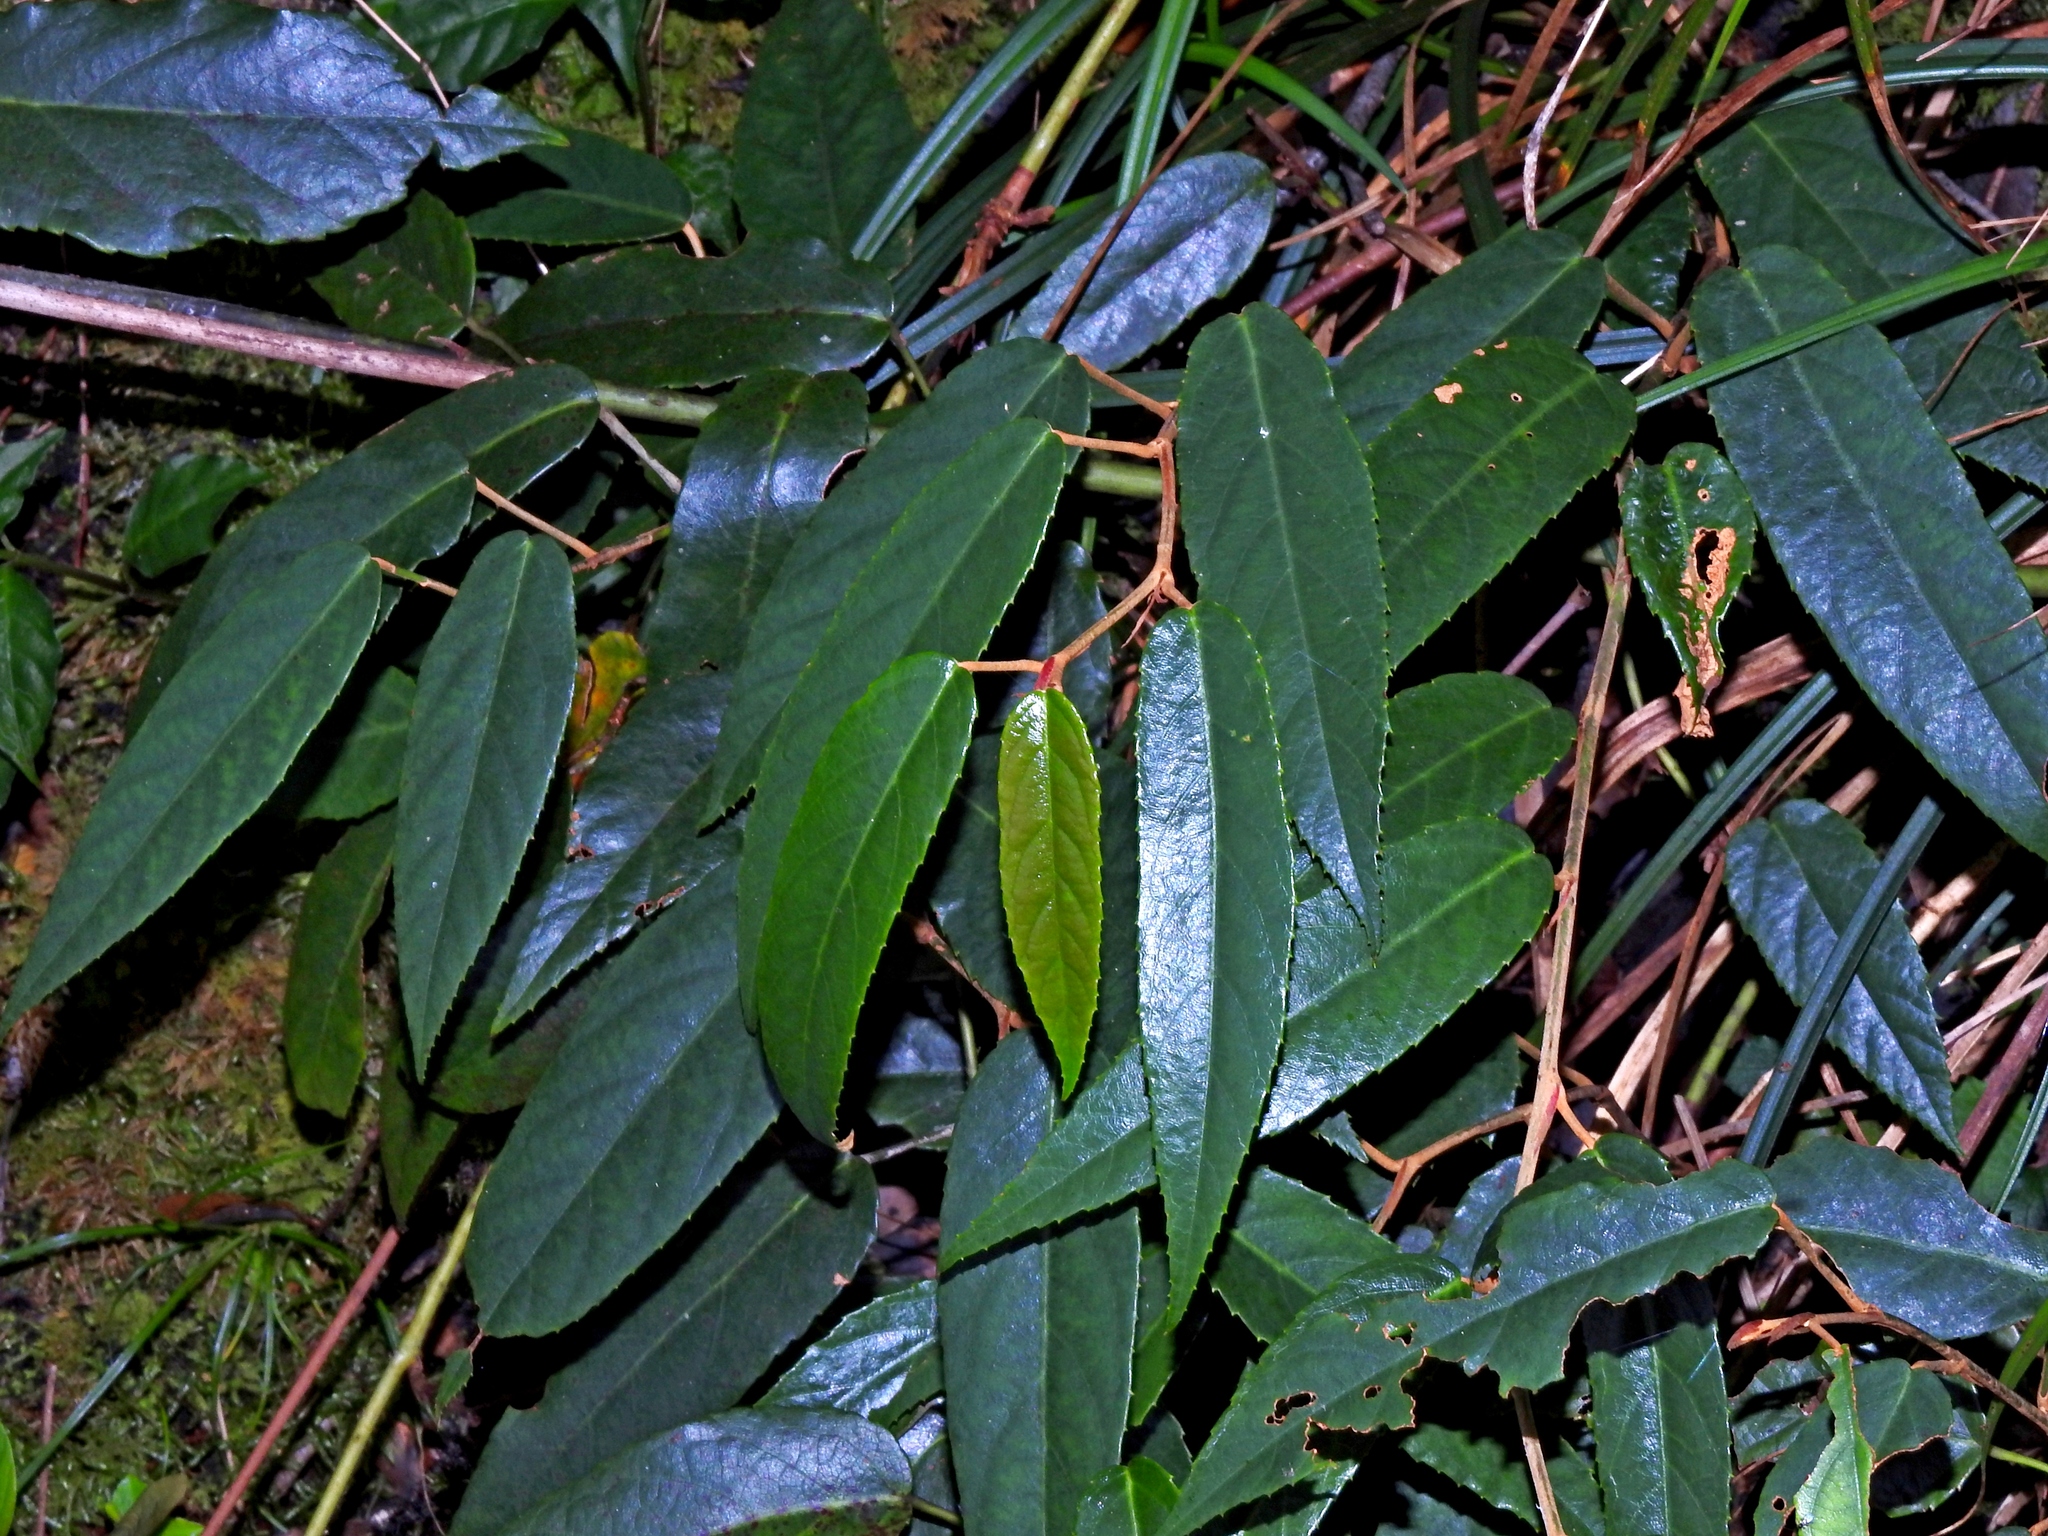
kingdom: Plantae
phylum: Tracheophyta
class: Magnoliopsida
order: Rosales
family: Rosaceae
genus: Rubus
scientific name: Rubus liui
